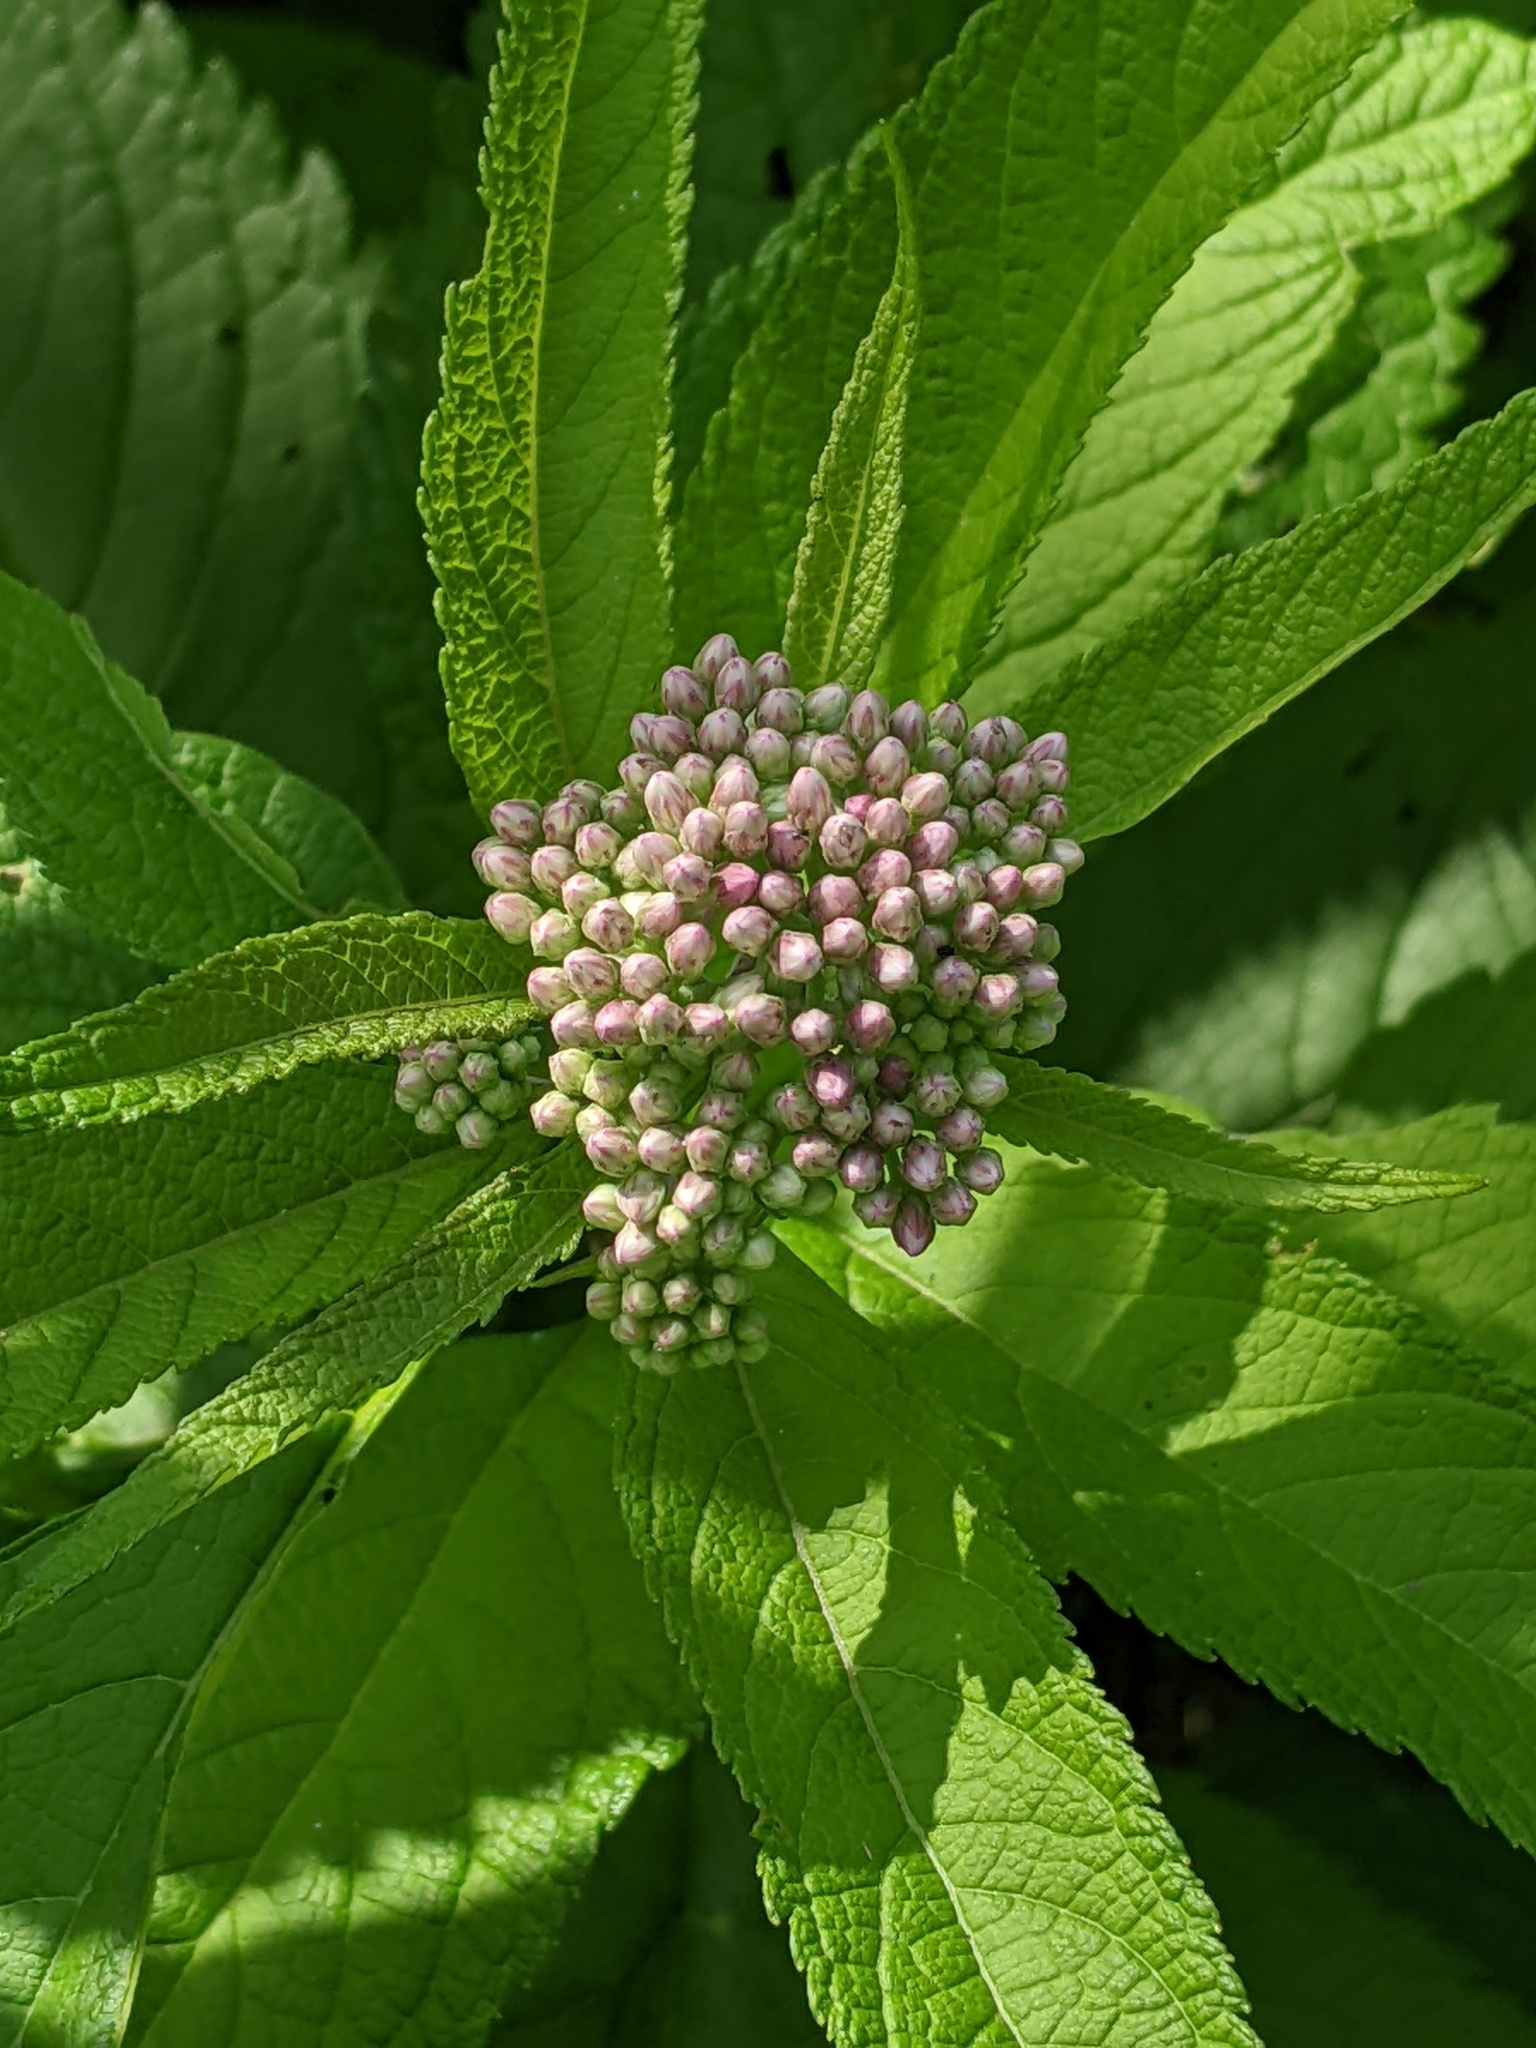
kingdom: Plantae
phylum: Tracheophyta
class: Magnoliopsida
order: Gentianales
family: Apocynaceae
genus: Asclepias
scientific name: Asclepias syriaca
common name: Common milkweed
